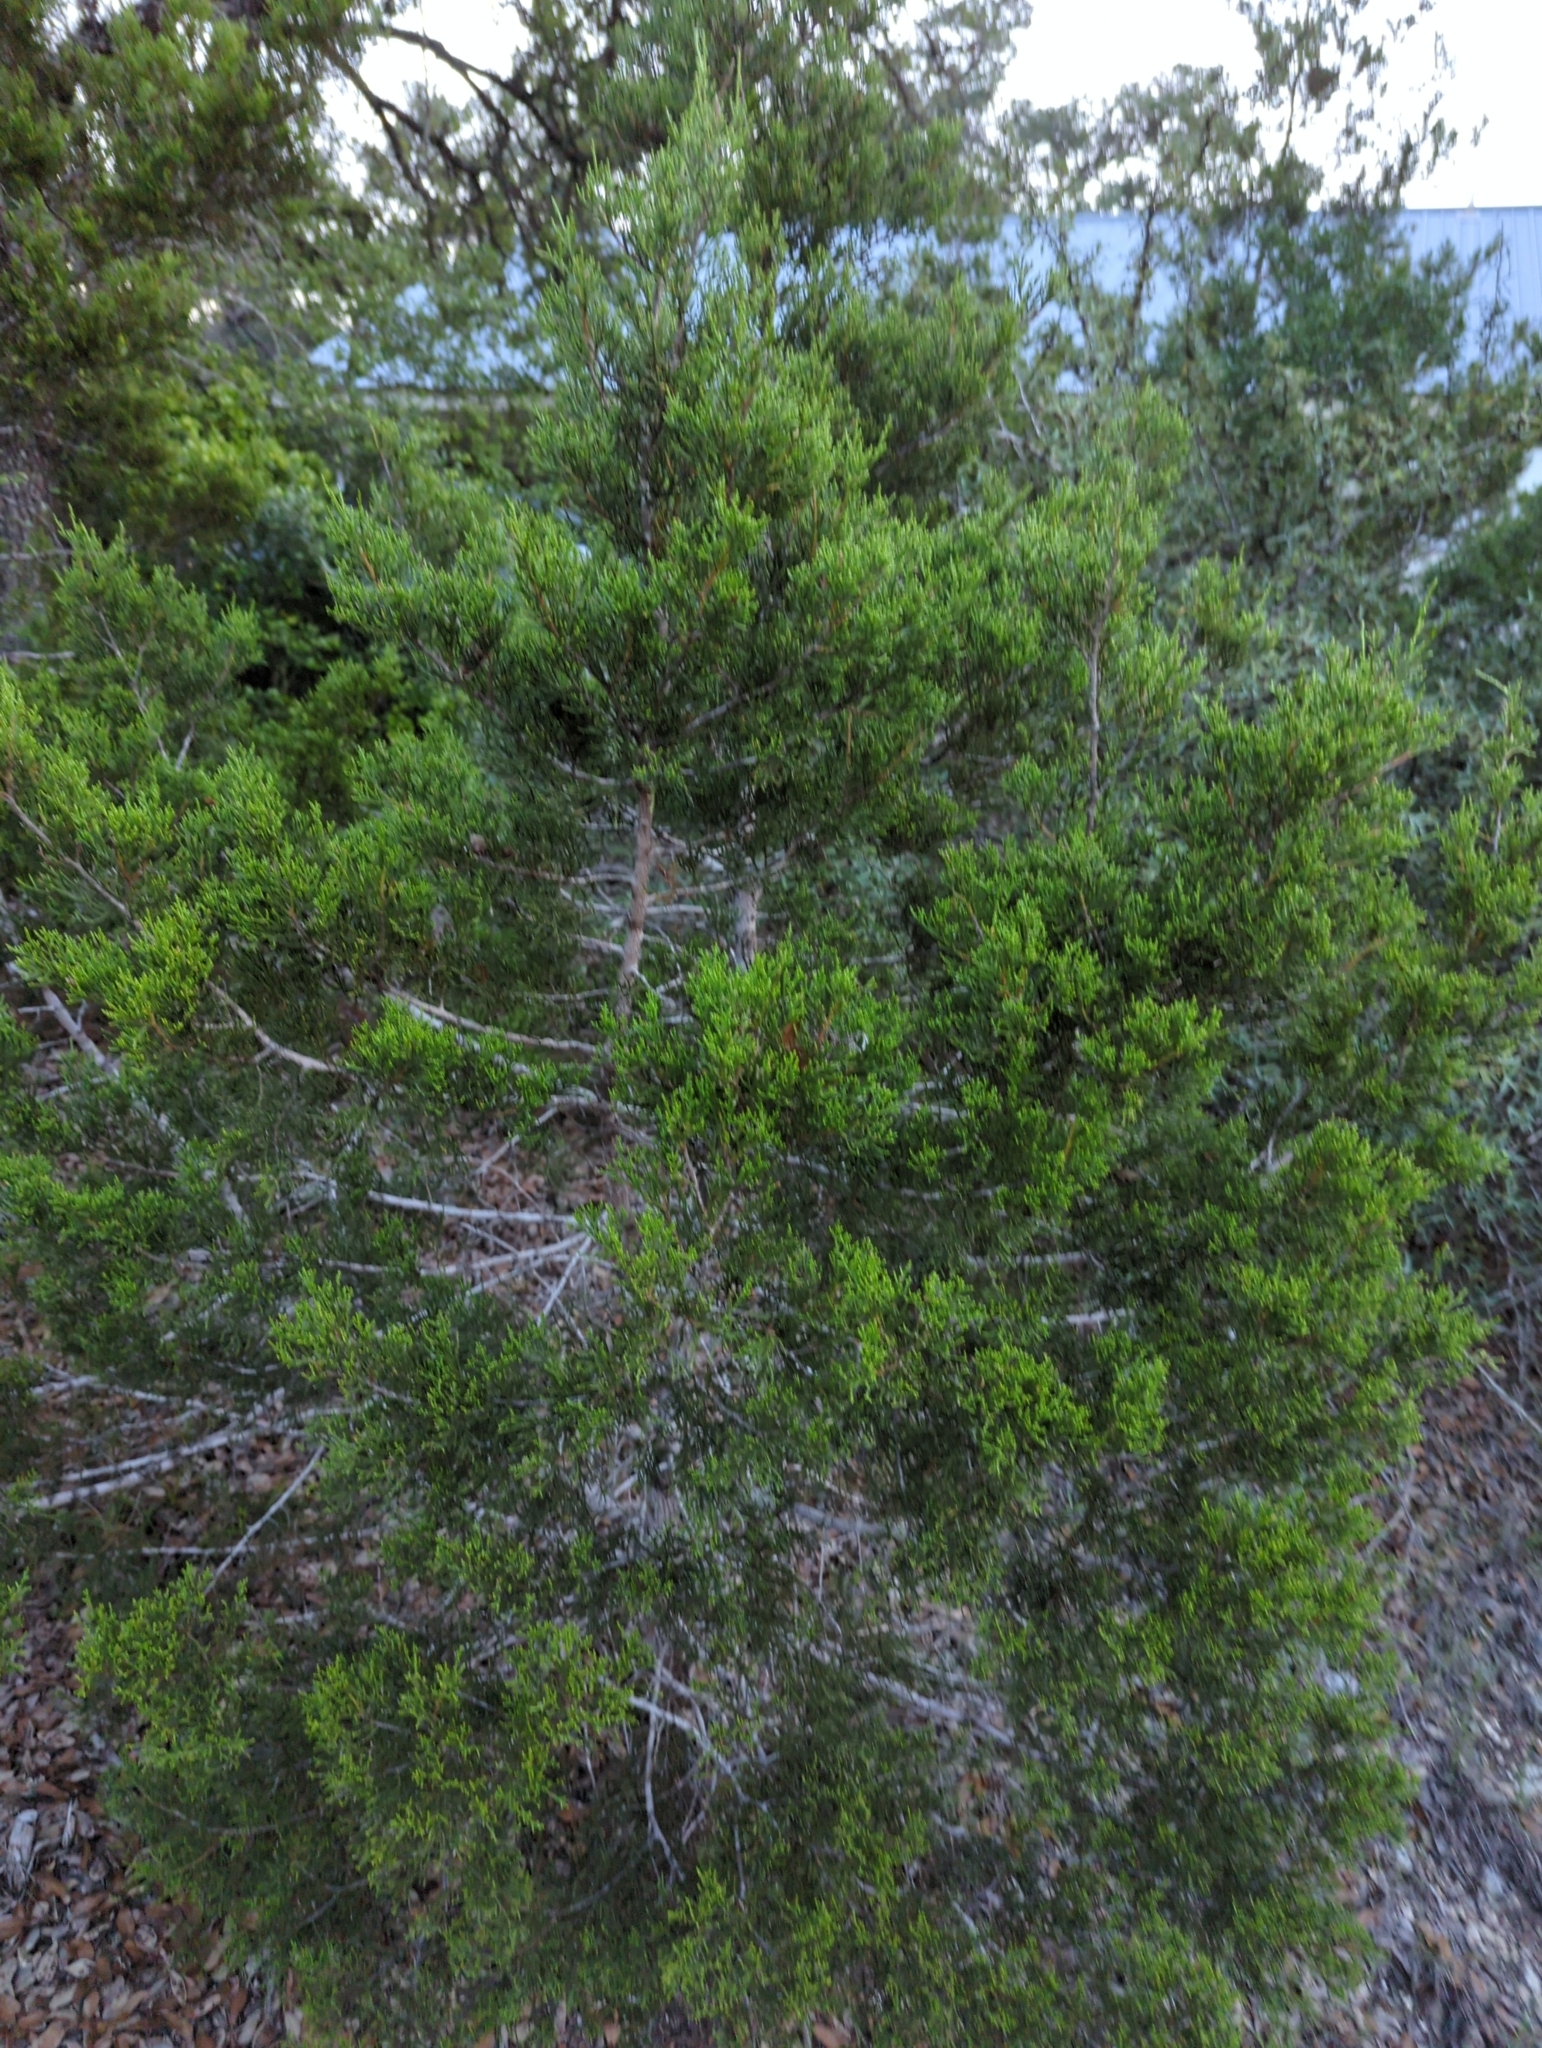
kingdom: Plantae
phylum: Tracheophyta
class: Pinopsida
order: Pinales
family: Cupressaceae
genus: Juniperus
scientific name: Juniperus ashei
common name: Mexican juniper
